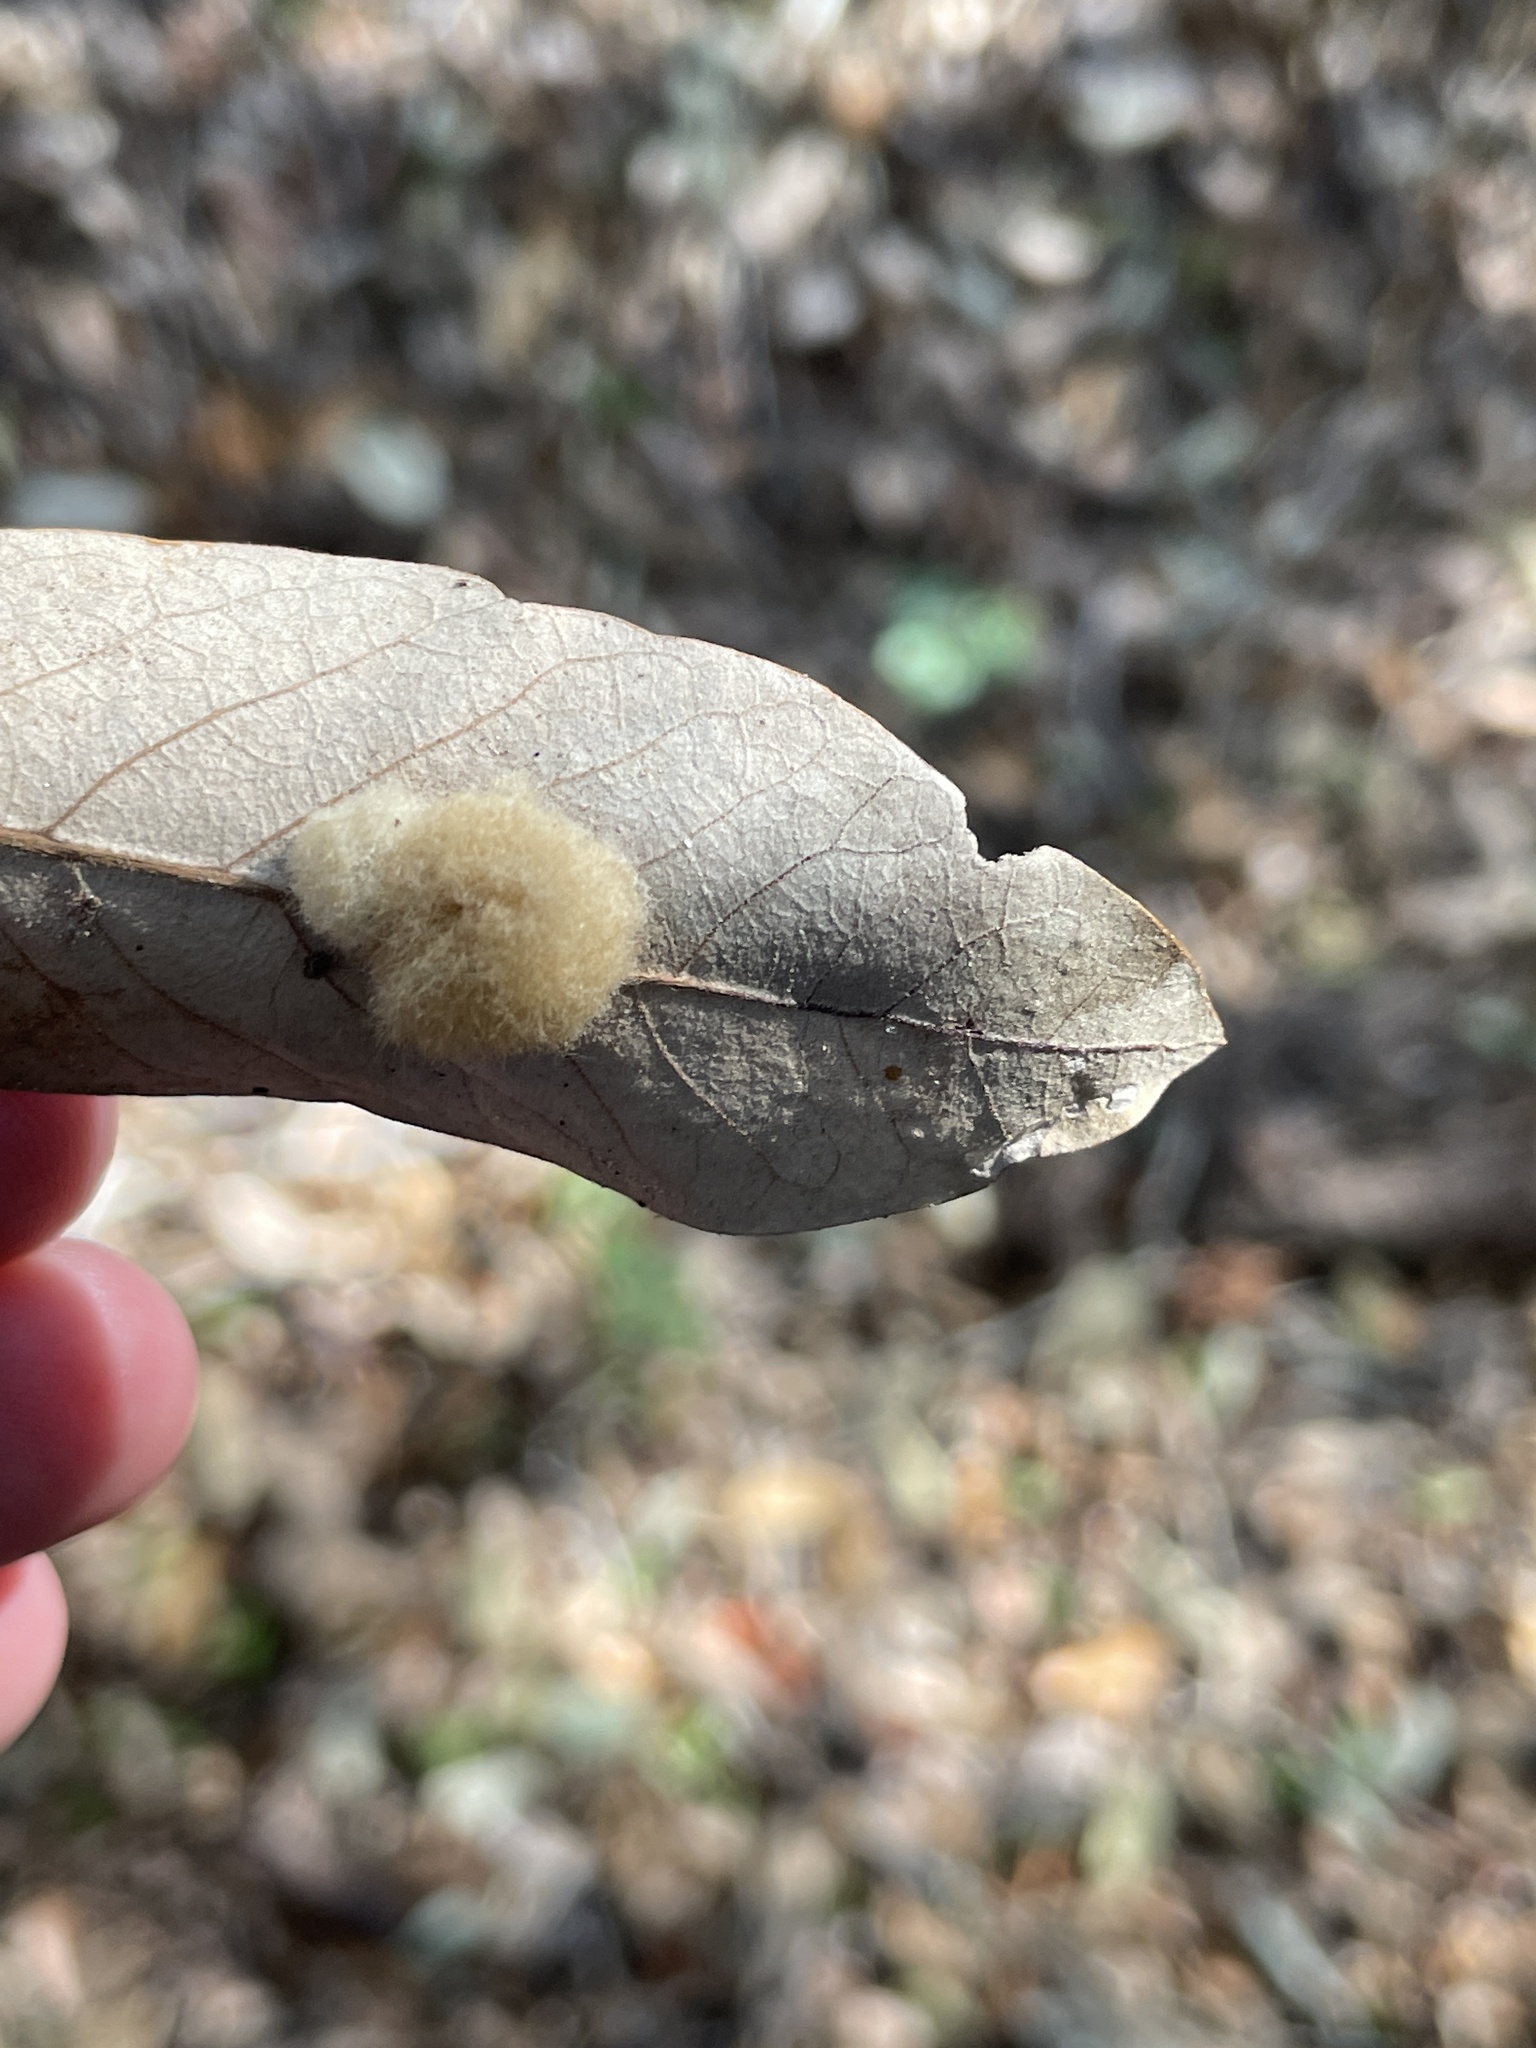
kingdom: Animalia
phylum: Arthropoda
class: Insecta
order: Hymenoptera
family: Cynipidae
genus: Andricus
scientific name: Andricus Druon quercuslanigerum
